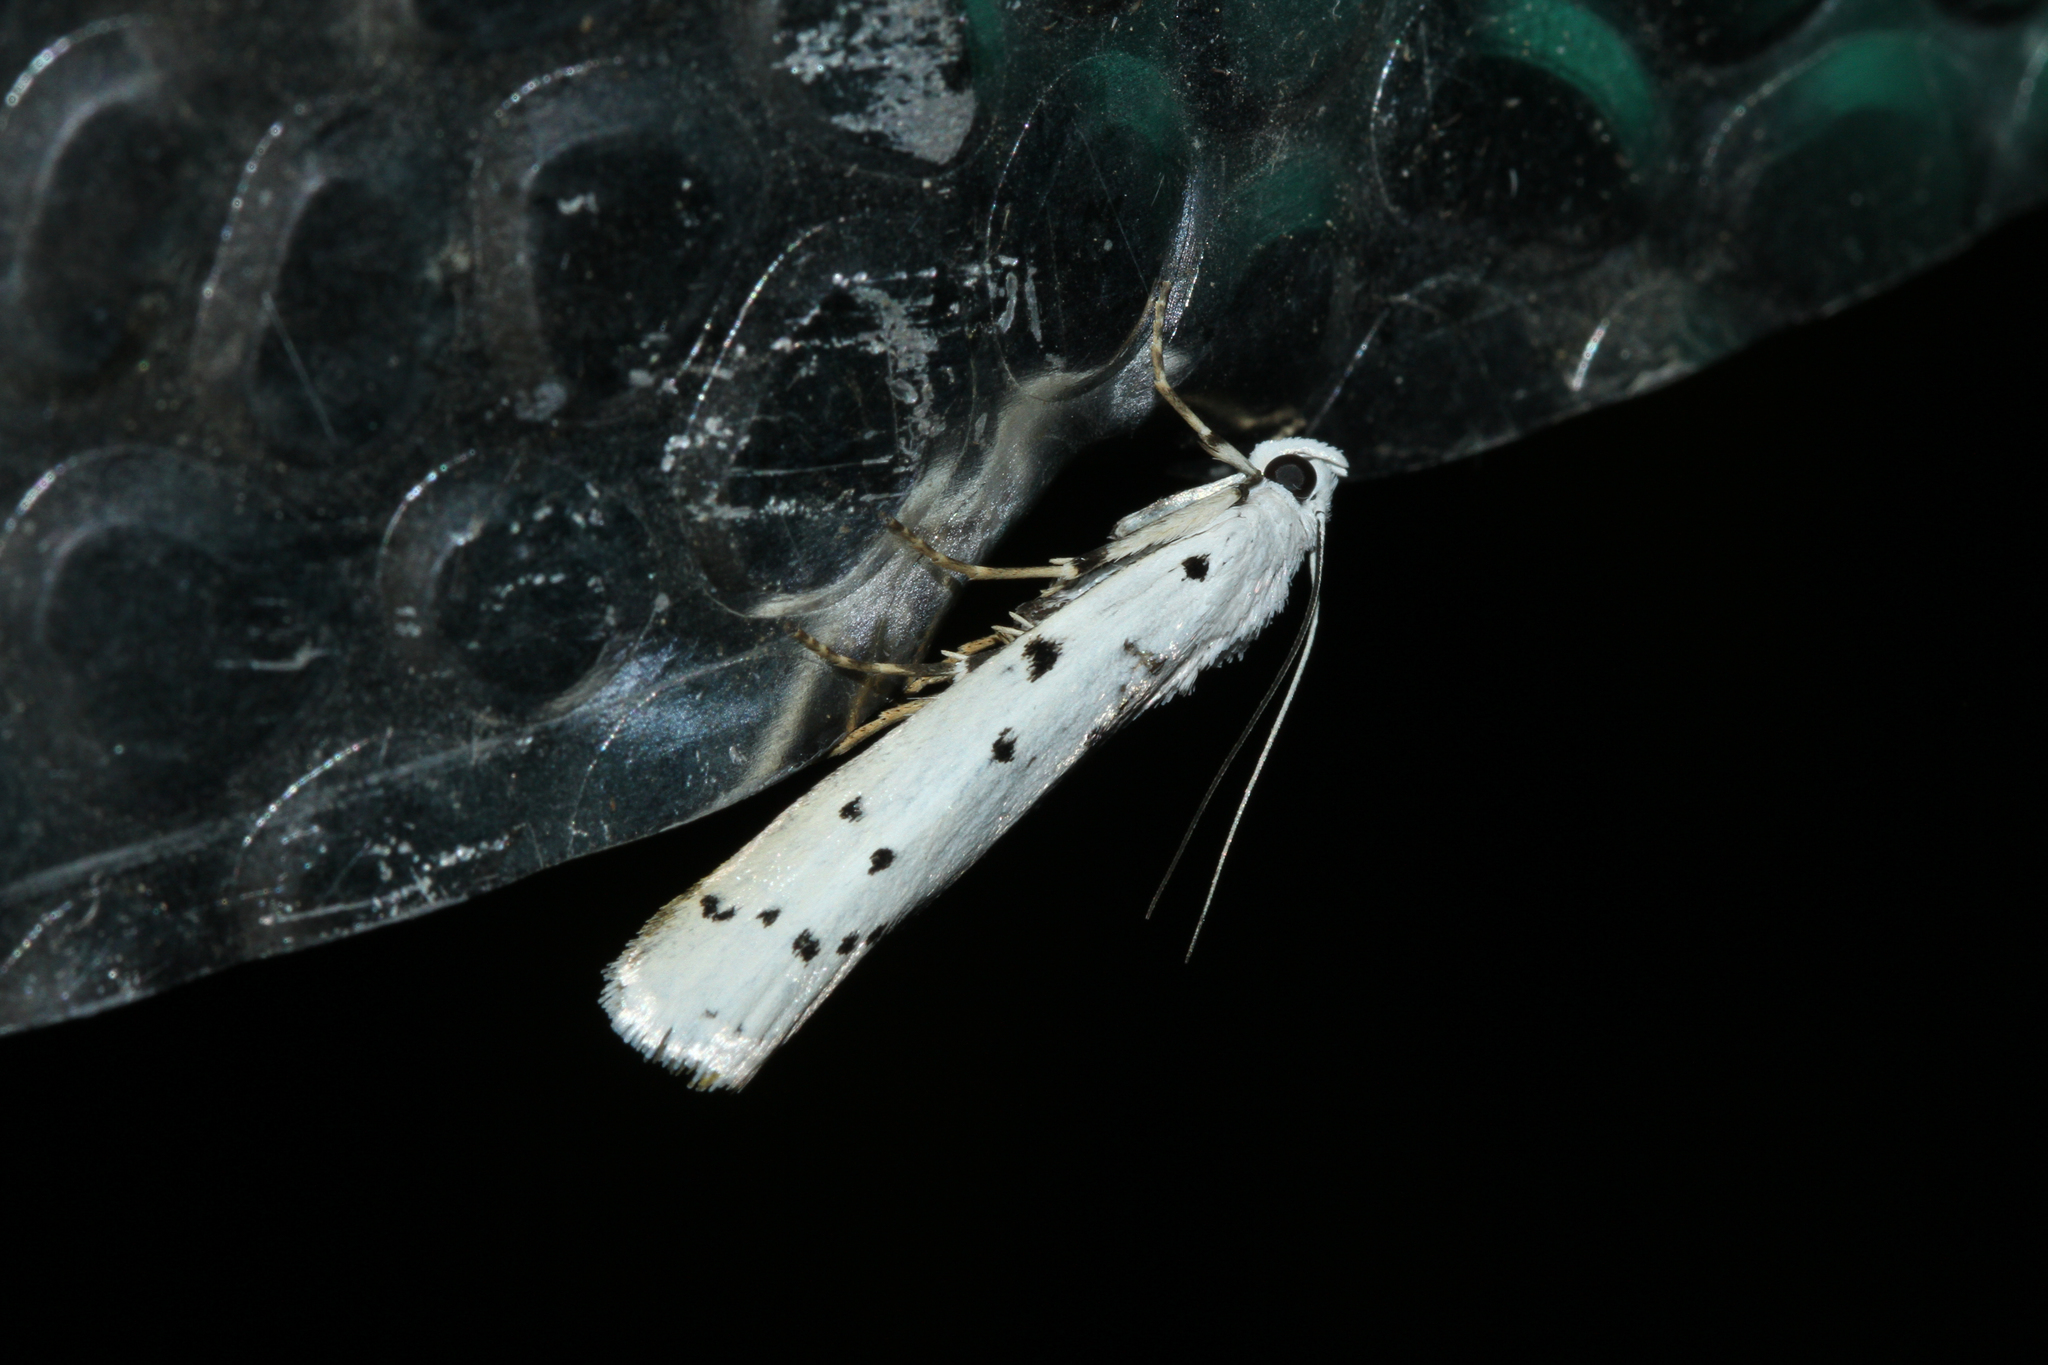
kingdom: Animalia
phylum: Arthropoda
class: Insecta
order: Lepidoptera
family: Pyralidae
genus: Myelois
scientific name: Myelois circumvoluta
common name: Thistle ermine
